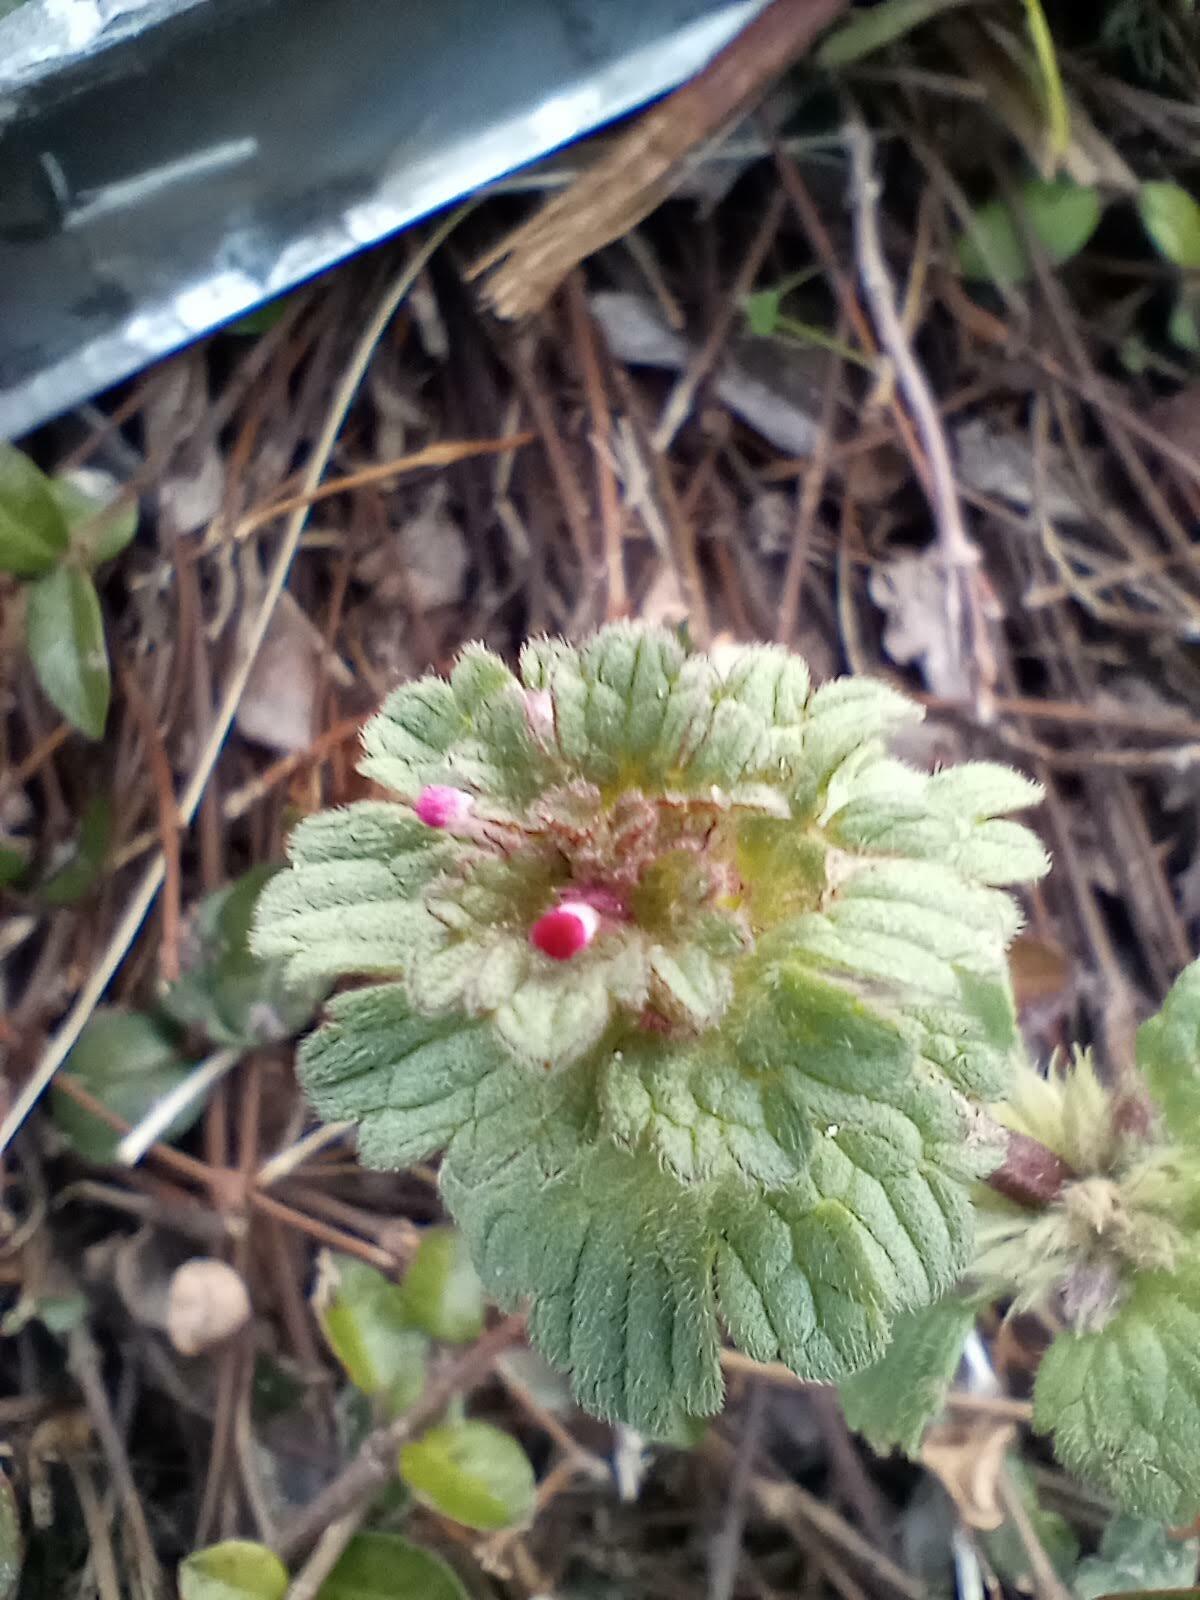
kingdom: Plantae
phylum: Tracheophyta
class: Magnoliopsida
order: Lamiales
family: Lamiaceae
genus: Lamium
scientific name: Lamium amplexicaule
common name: Henbit dead-nettle
